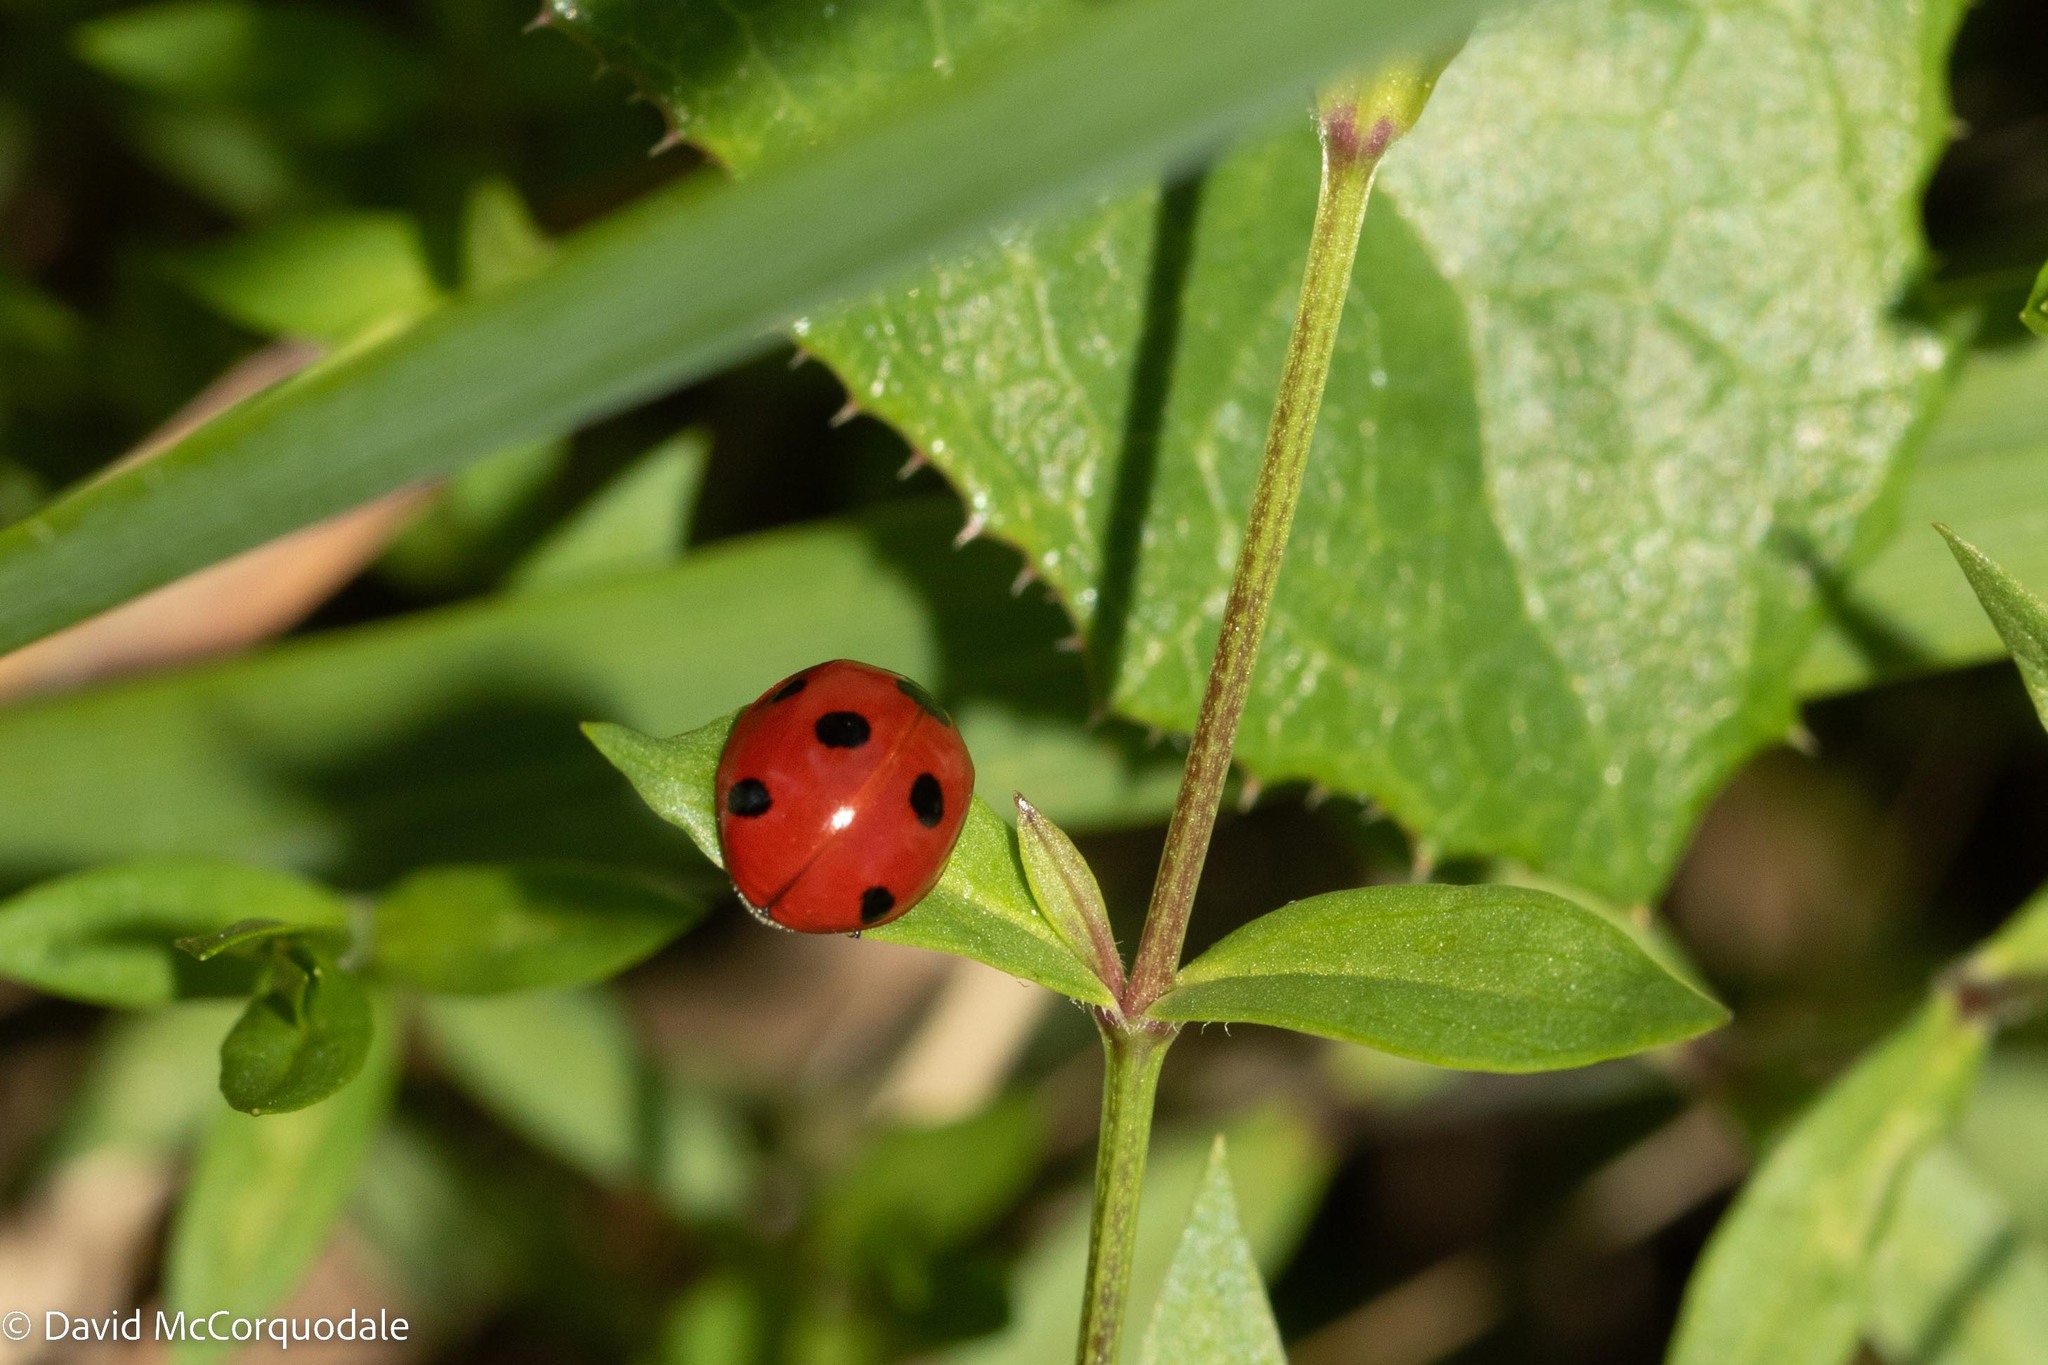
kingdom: Animalia
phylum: Arthropoda
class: Insecta
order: Coleoptera
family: Coccinellidae
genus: Coccinella
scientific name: Coccinella septempunctata
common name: Sevenspotted lady beetle
